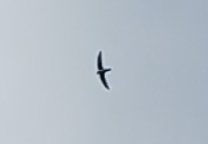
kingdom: Animalia
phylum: Chordata
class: Aves
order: Apodiformes
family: Apodidae
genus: Tachymarptis
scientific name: Tachymarptis melba
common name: Alpine swift
